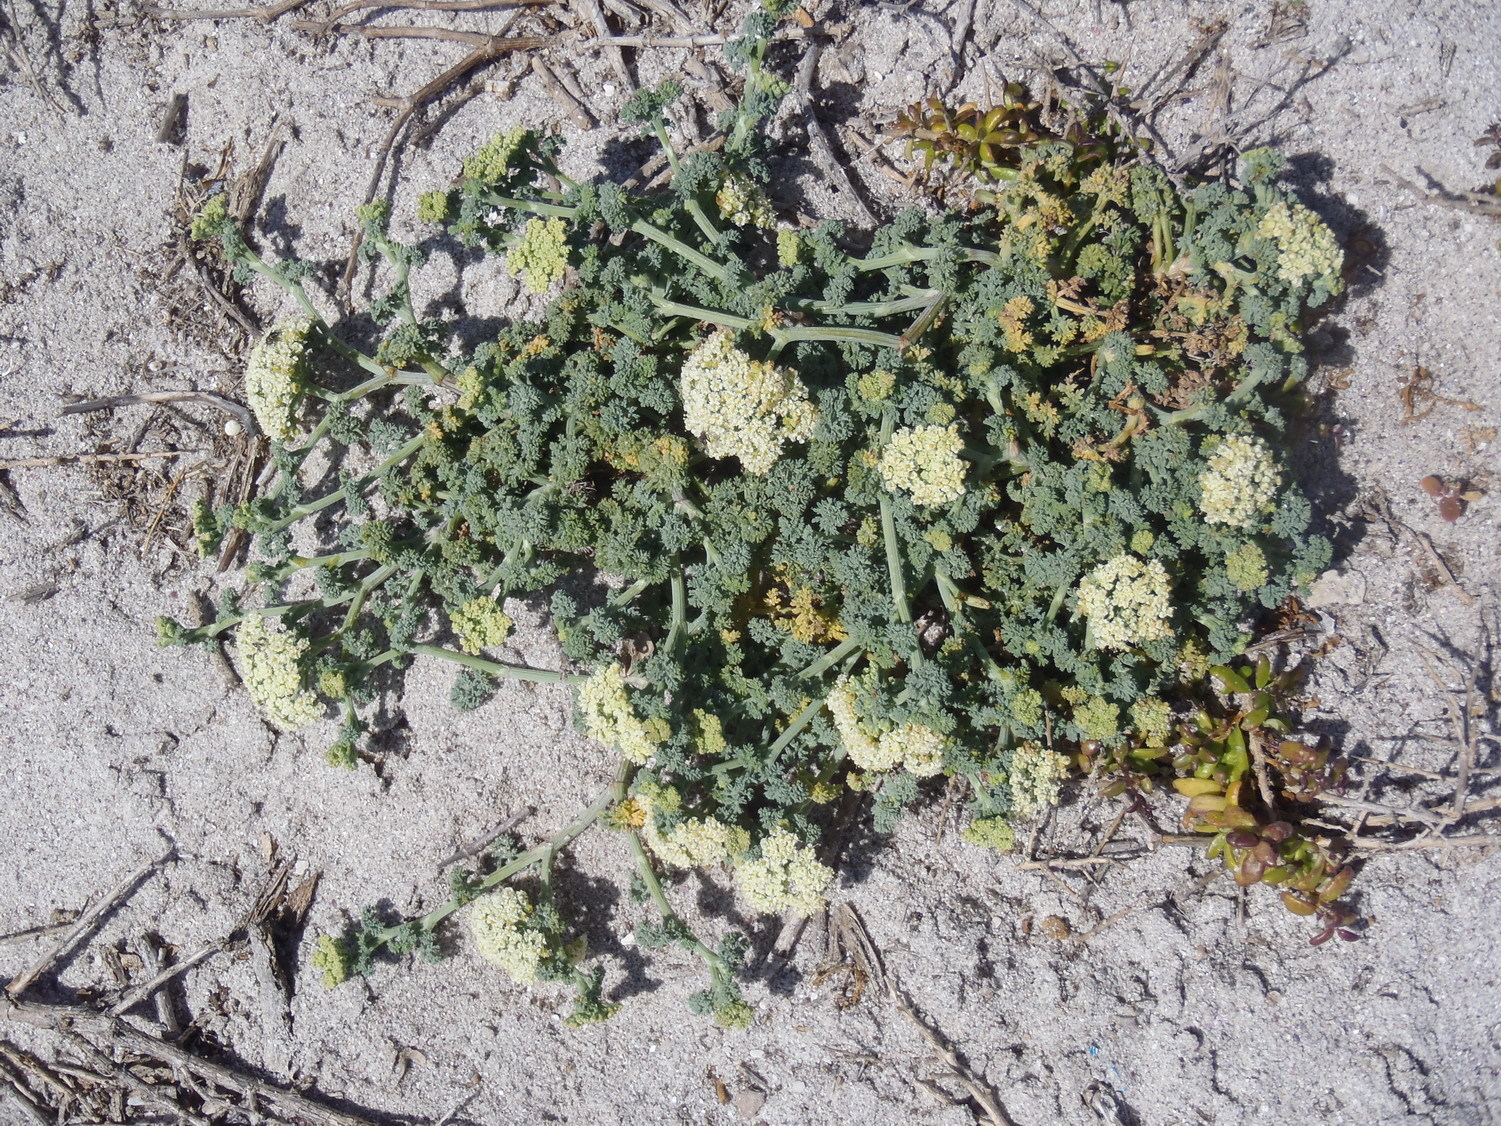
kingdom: Plantae
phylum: Tracheophyta
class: Magnoliopsida
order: Apiales
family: Apiaceae
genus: Dasispermum
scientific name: Dasispermum suffruticosum
